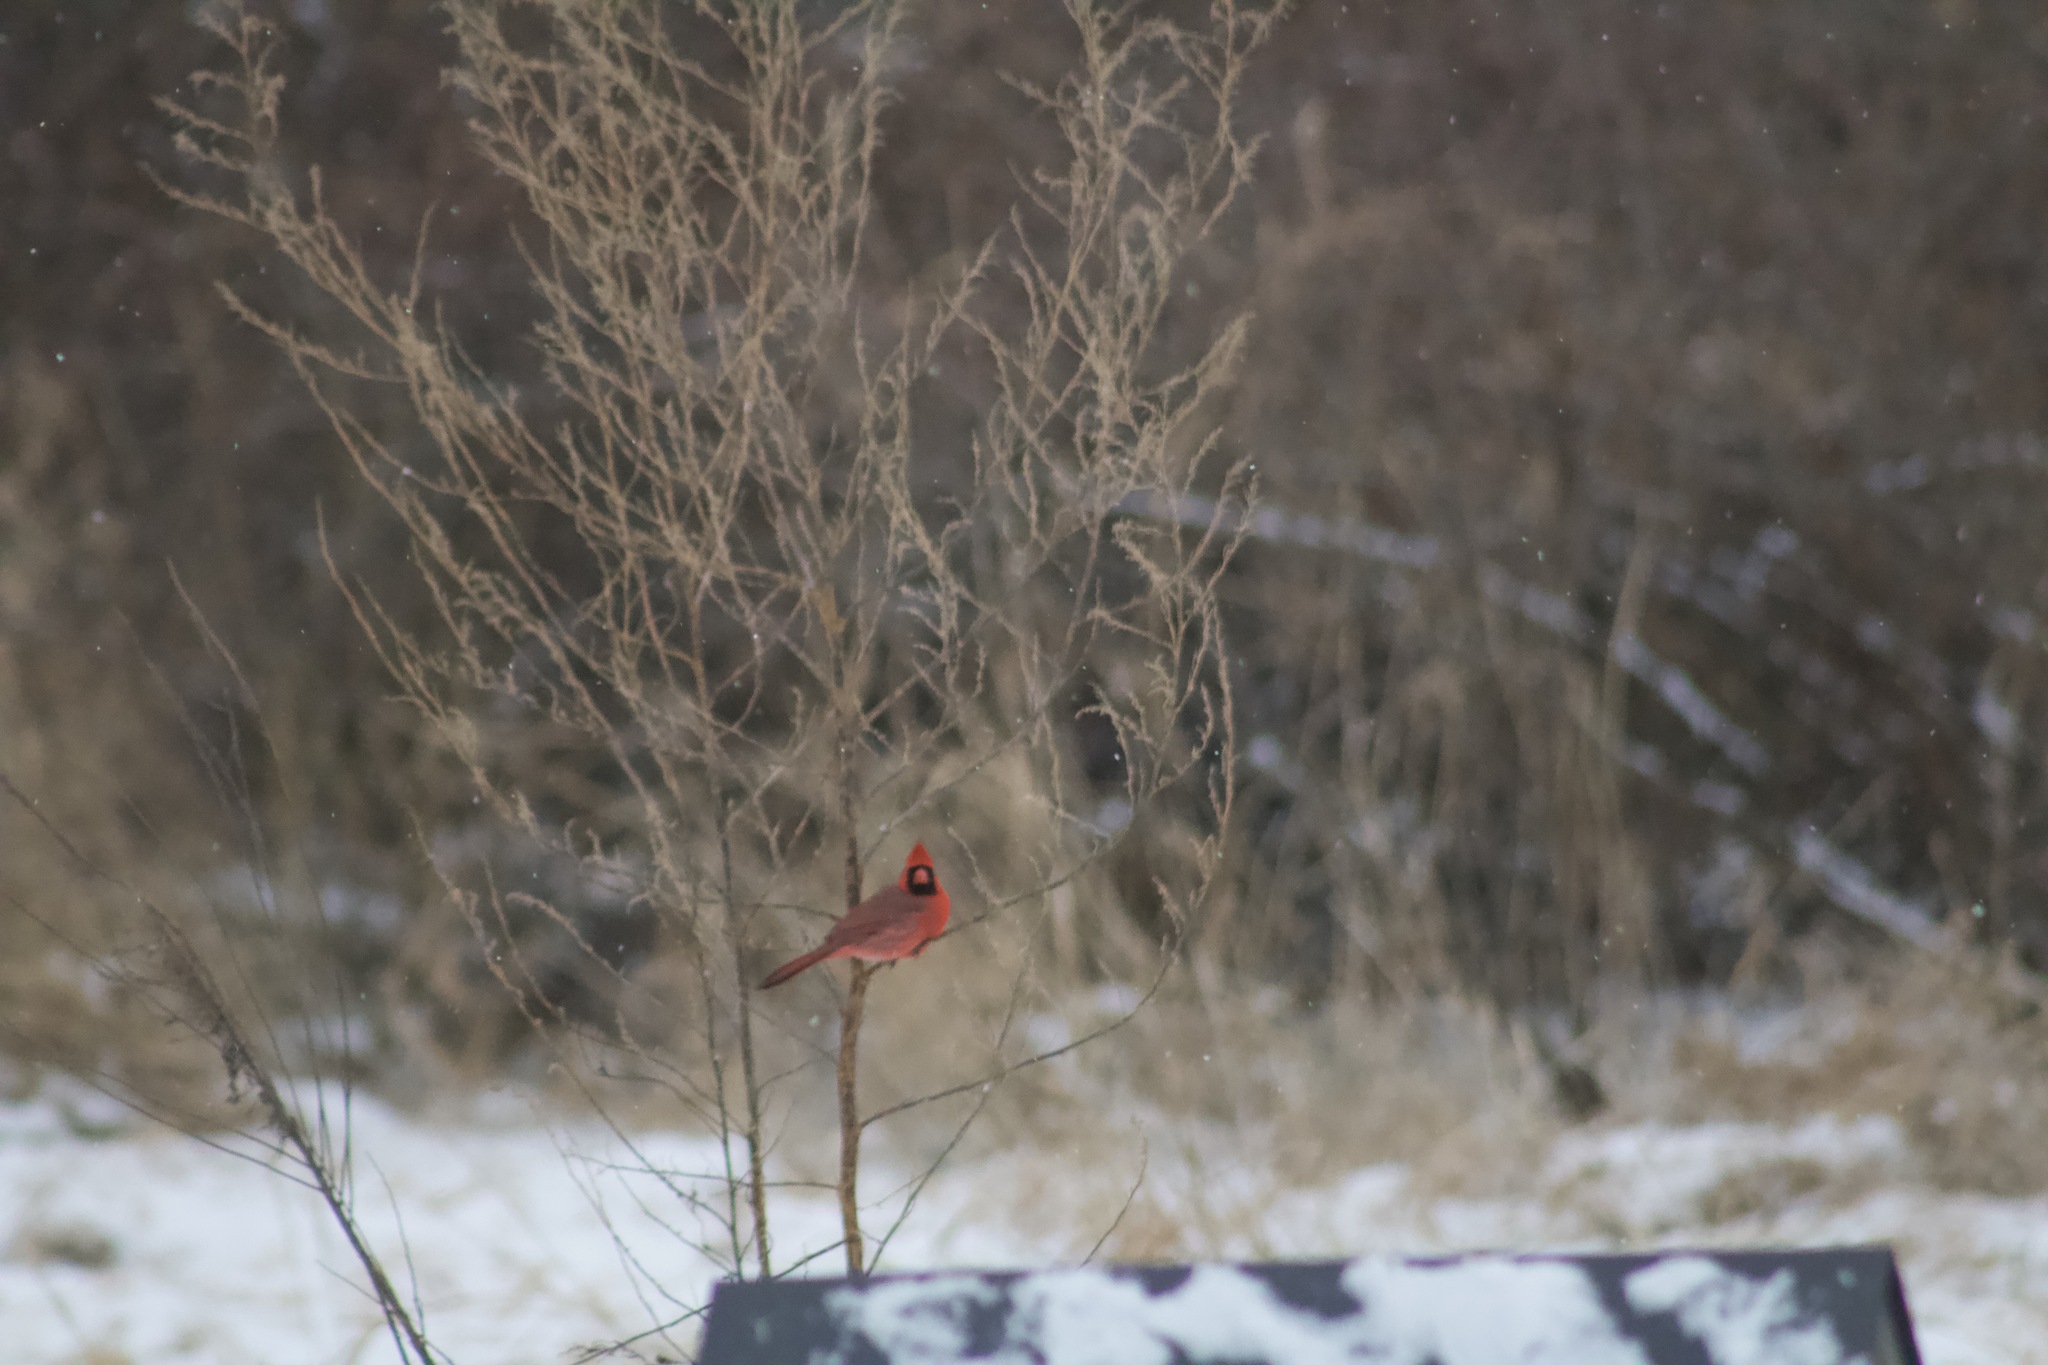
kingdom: Animalia
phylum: Chordata
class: Aves
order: Passeriformes
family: Cardinalidae
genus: Cardinalis
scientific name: Cardinalis cardinalis
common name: Northern cardinal
